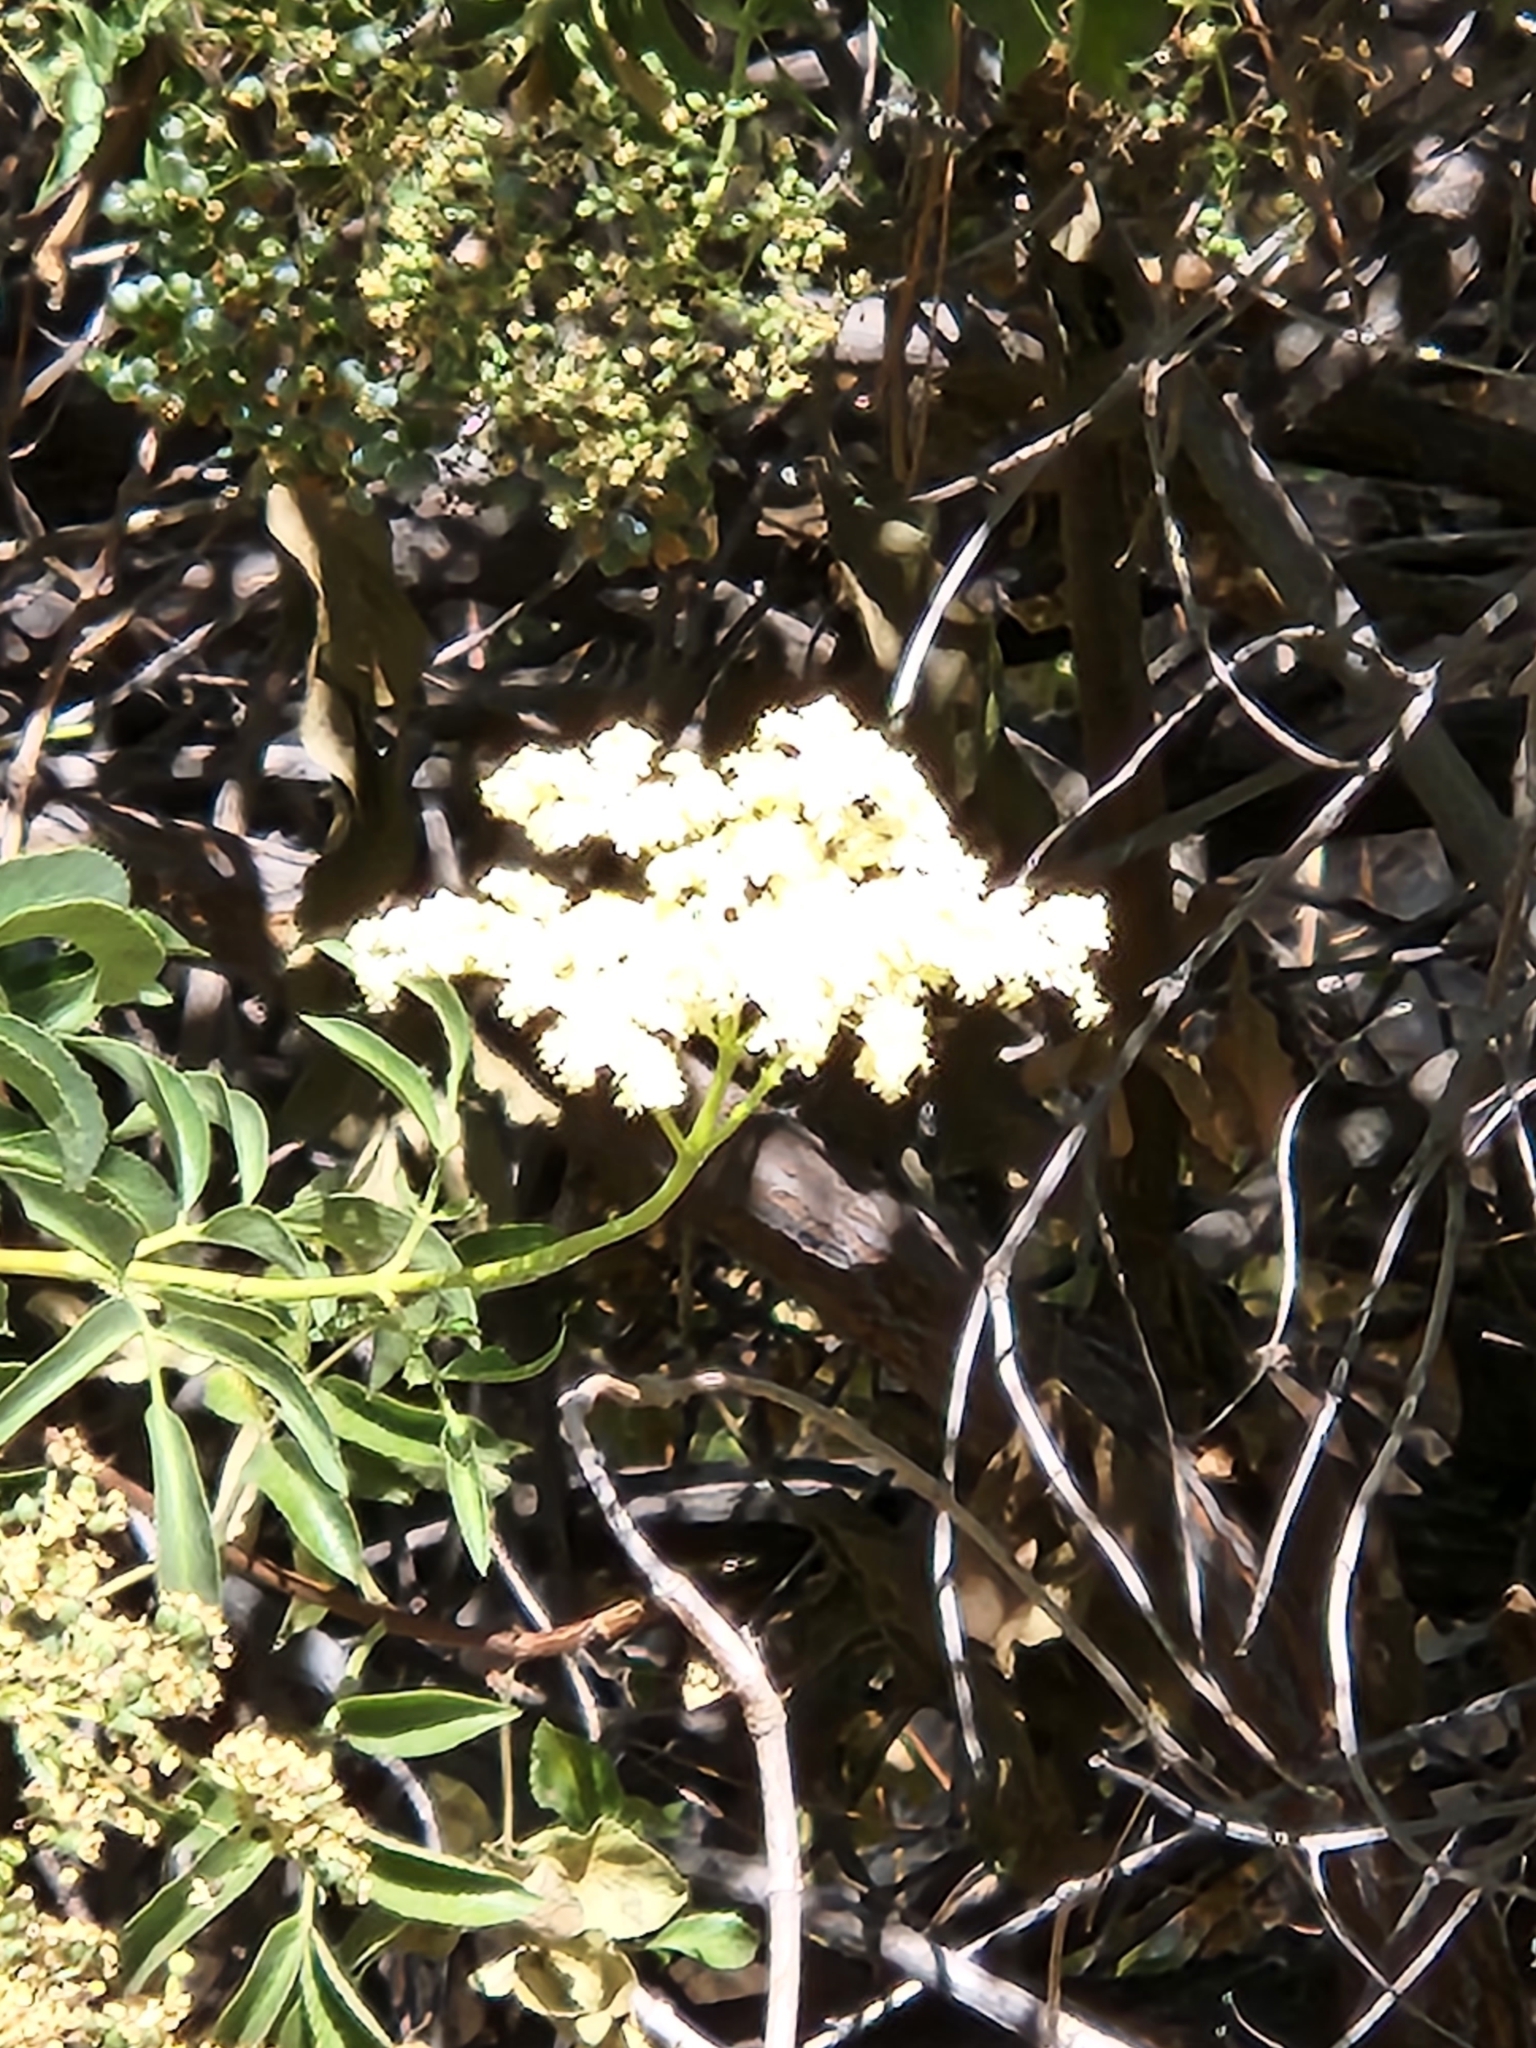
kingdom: Plantae
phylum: Tracheophyta
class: Magnoliopsida
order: Dipsacales
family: Viburnaceae
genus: Sambucus
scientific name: Sambucus cerulea
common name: Blue elder
